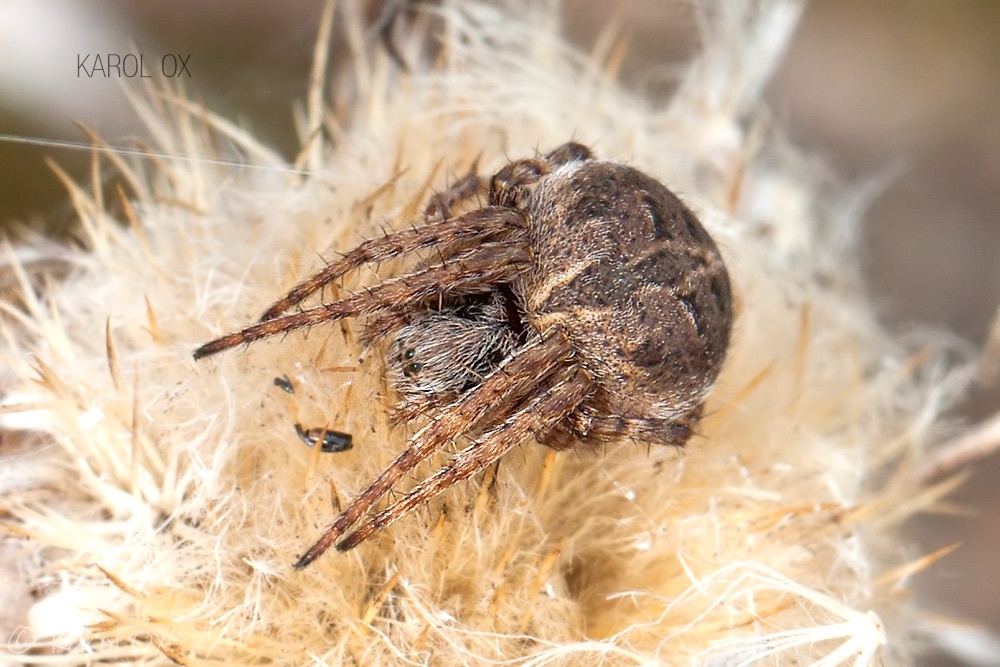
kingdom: Animalia
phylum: Arthropoda
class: Arachnida
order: Araneae
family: Araneidae
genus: Agalenatea
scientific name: Agalenatea redii
